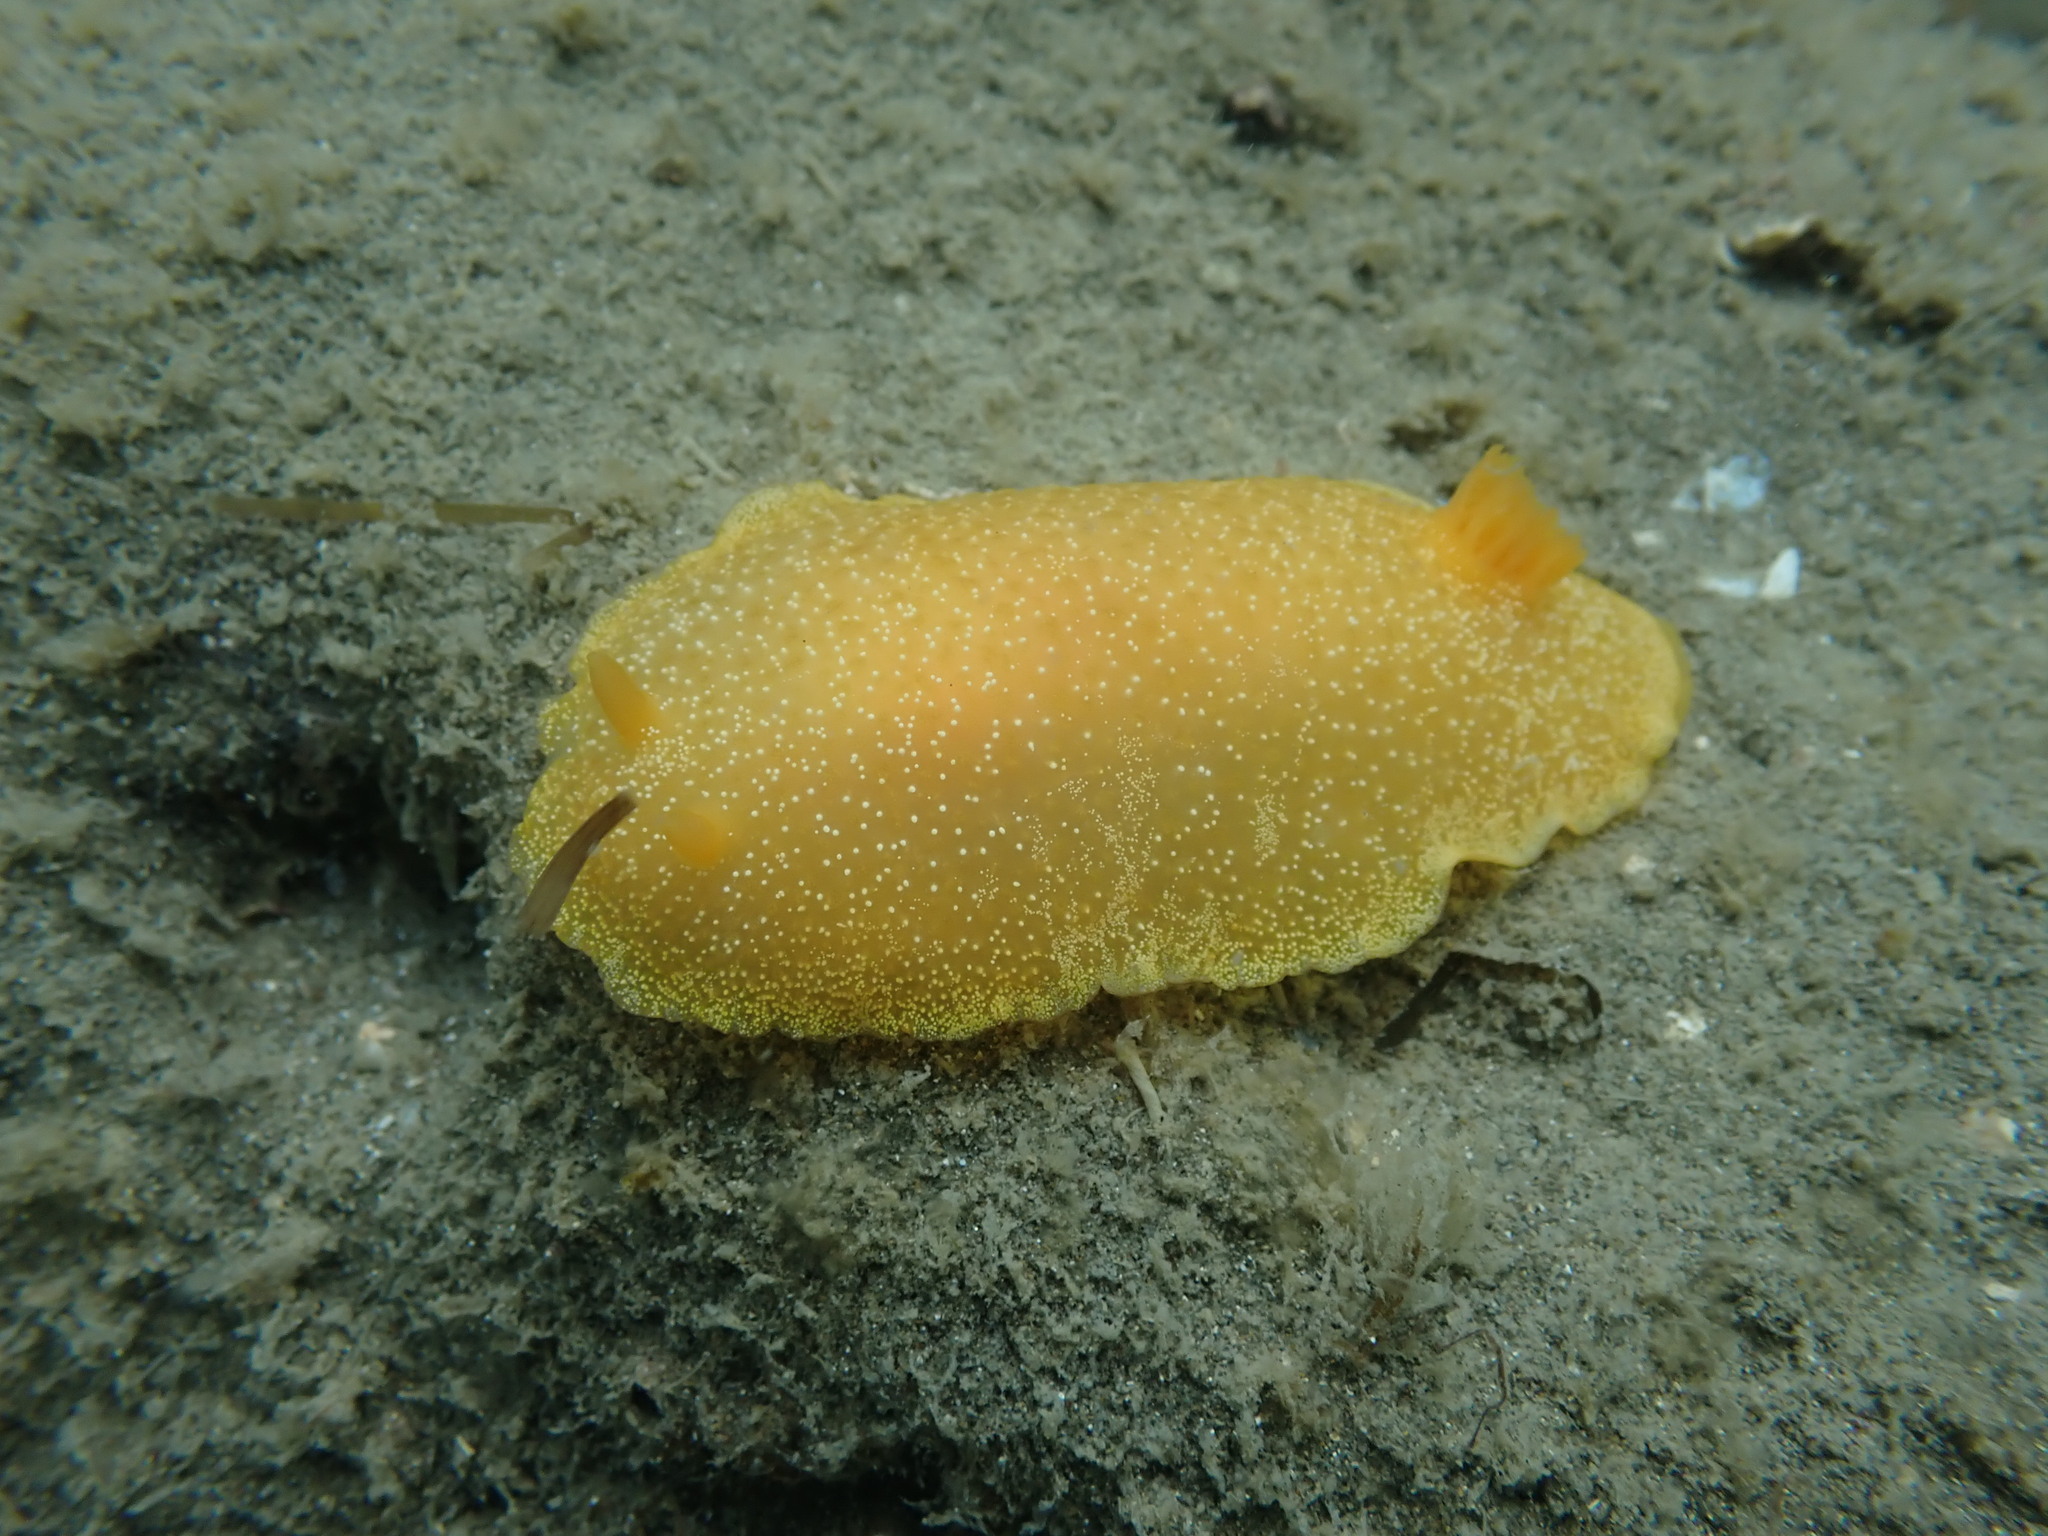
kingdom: Animalia
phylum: Mollusca
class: Gastropoda
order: Nudibranchia
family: Dendrodorididae
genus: Dendrodoris
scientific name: Dendrodoris citrina
